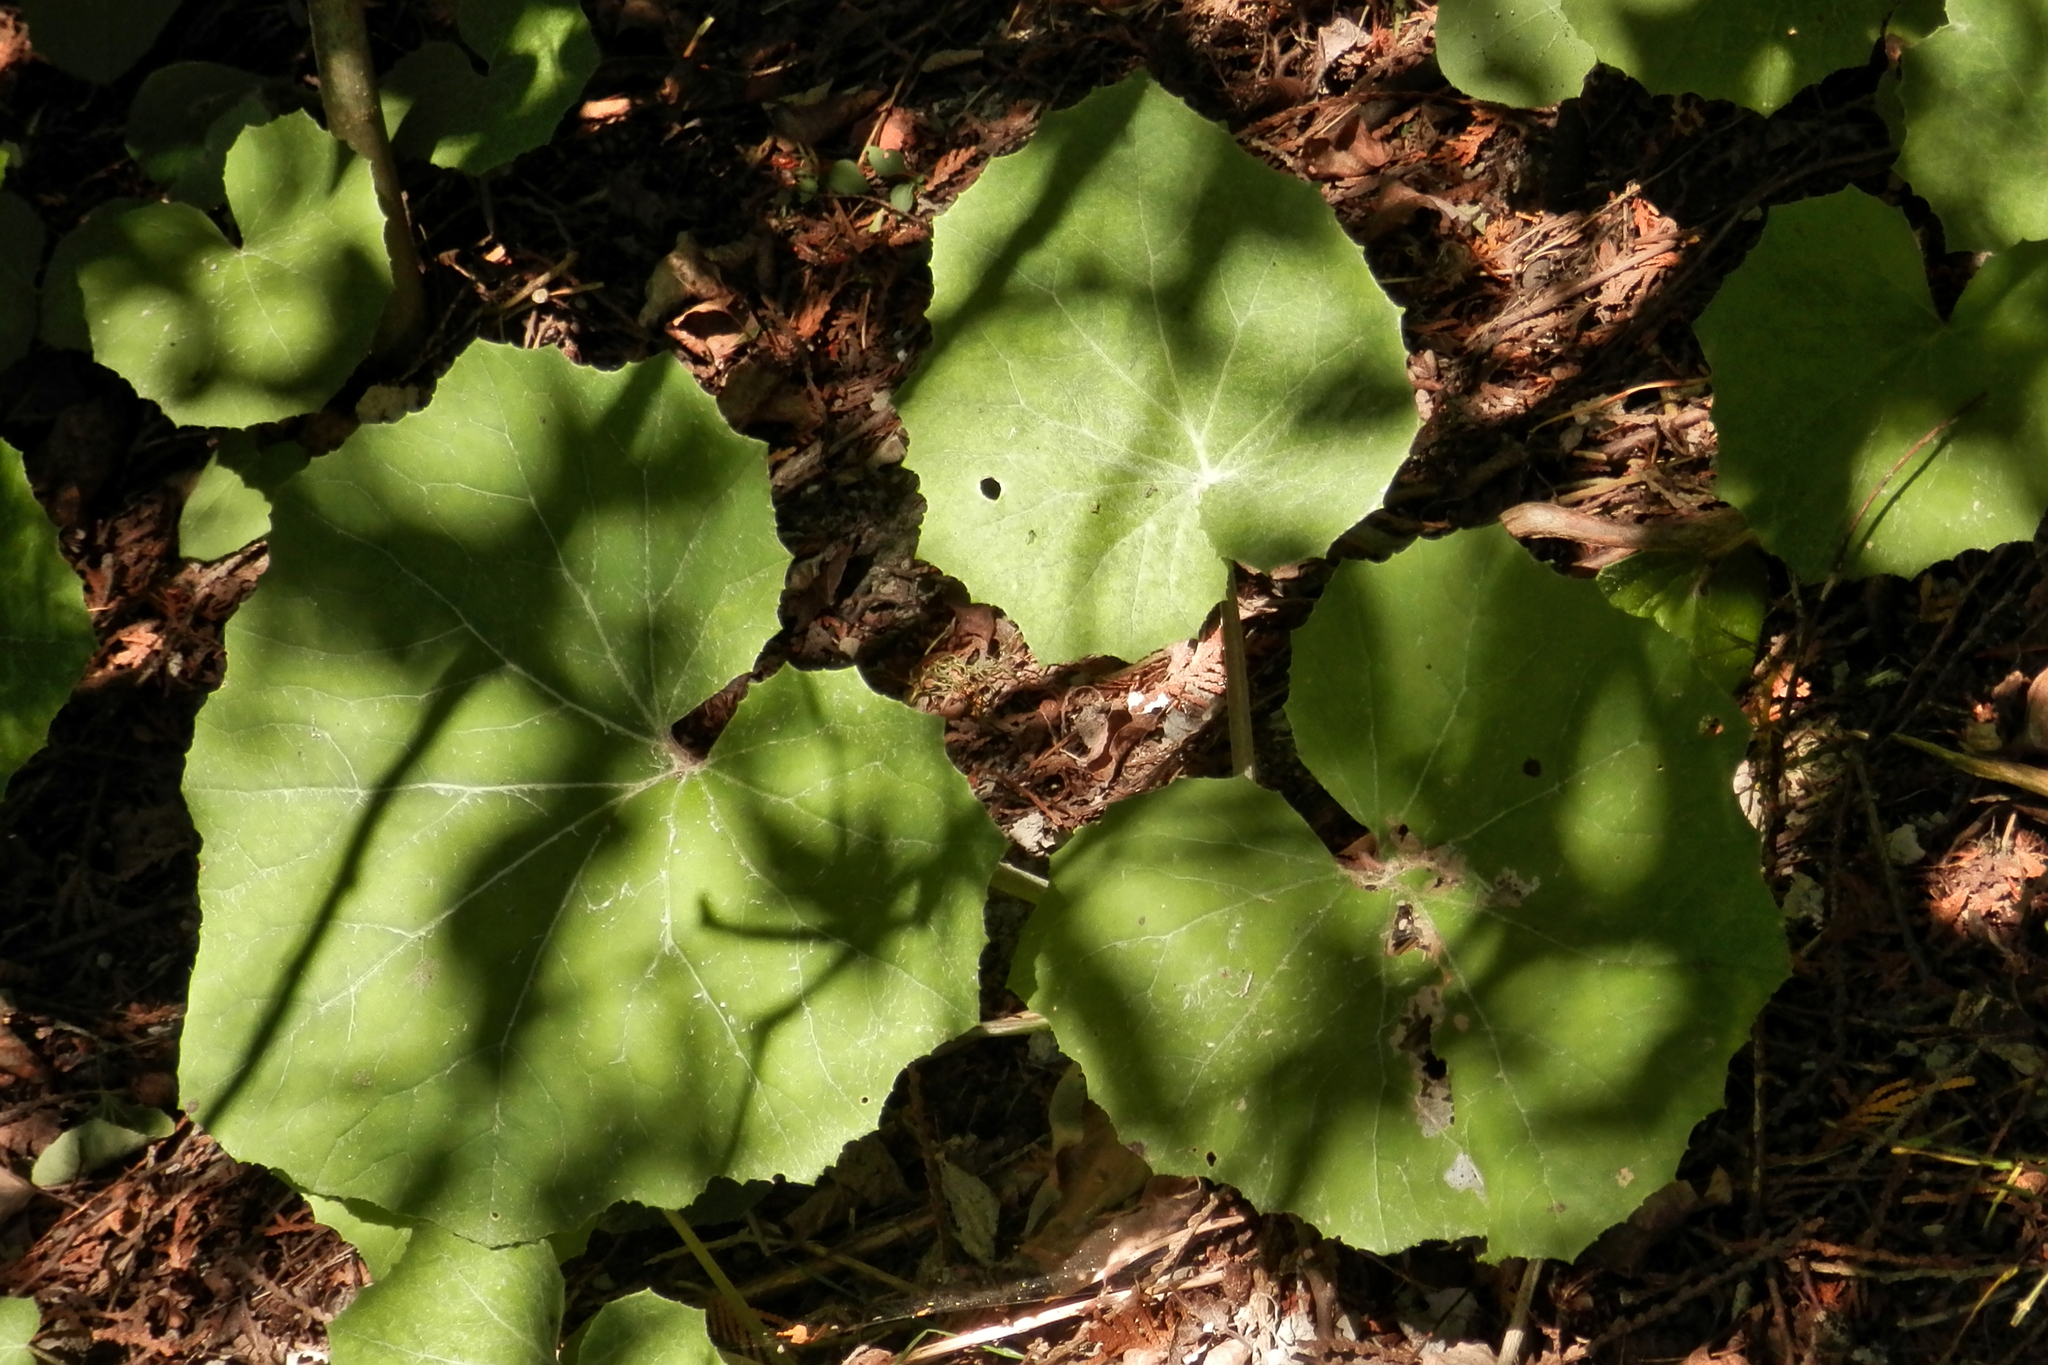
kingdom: Plantae
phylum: Tracheophyta
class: Magnoliopsida
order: Asterales
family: Asteraceae
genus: Tussilago
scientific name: Tussilago farfara
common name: Coltsfoot
